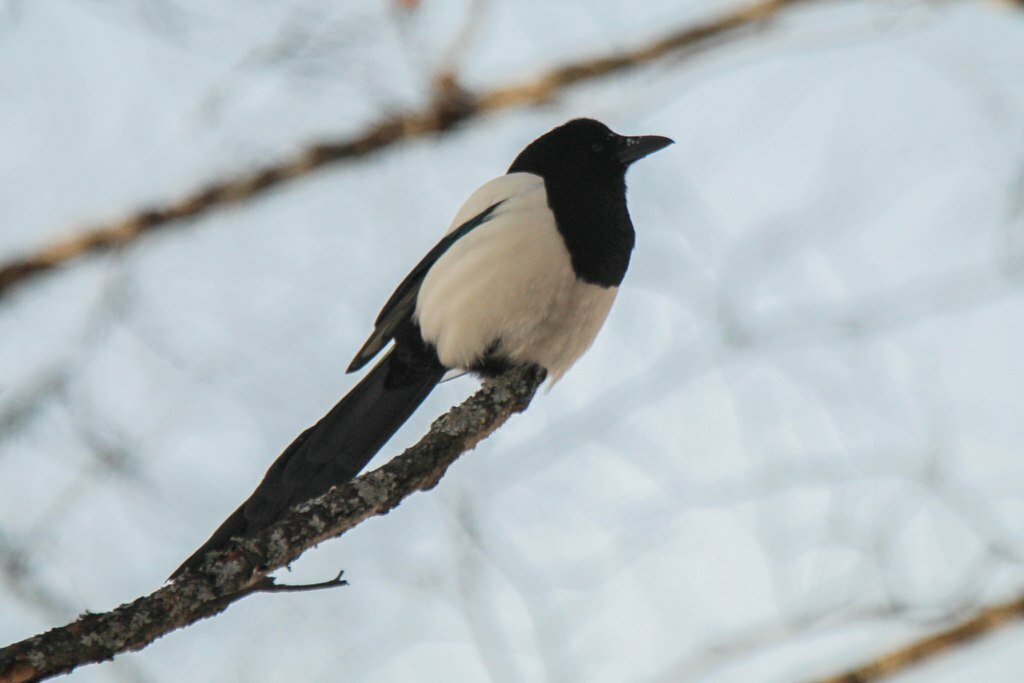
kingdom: Animalia
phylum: Chordata
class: Aves
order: Passeriformes
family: Corvidae
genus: Pica
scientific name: Pica pica
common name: Eurasian magpie
